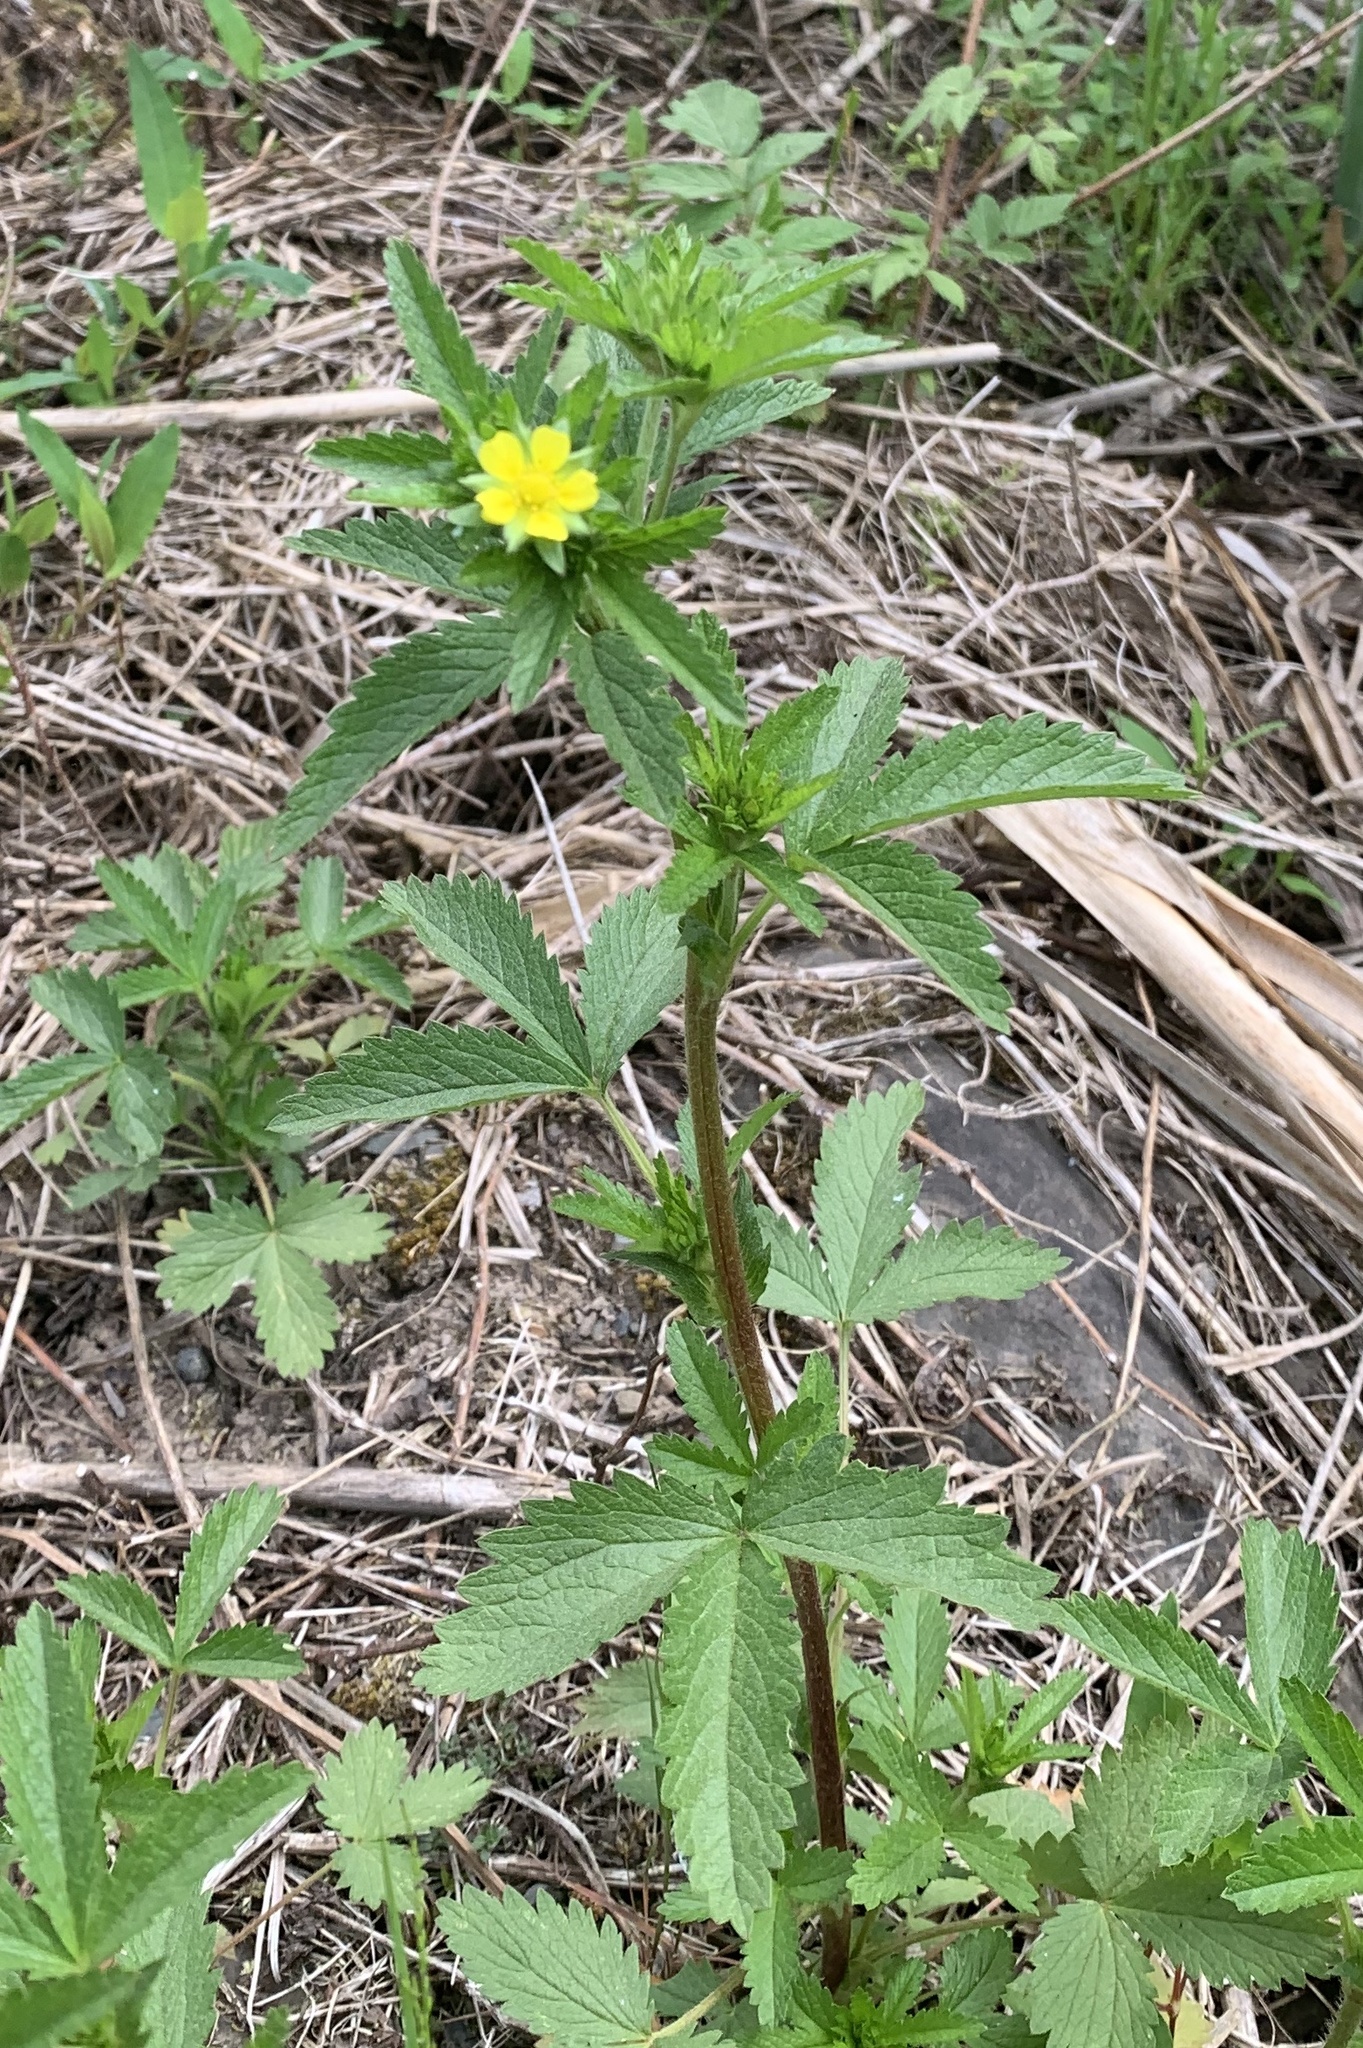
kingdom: Plantae
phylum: Tracheophyta
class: Magnoliopsida
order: Rosales
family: Rosaceae
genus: Potentilla
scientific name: Potentilla norvegica
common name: Ternate-leaved cinquefoil
